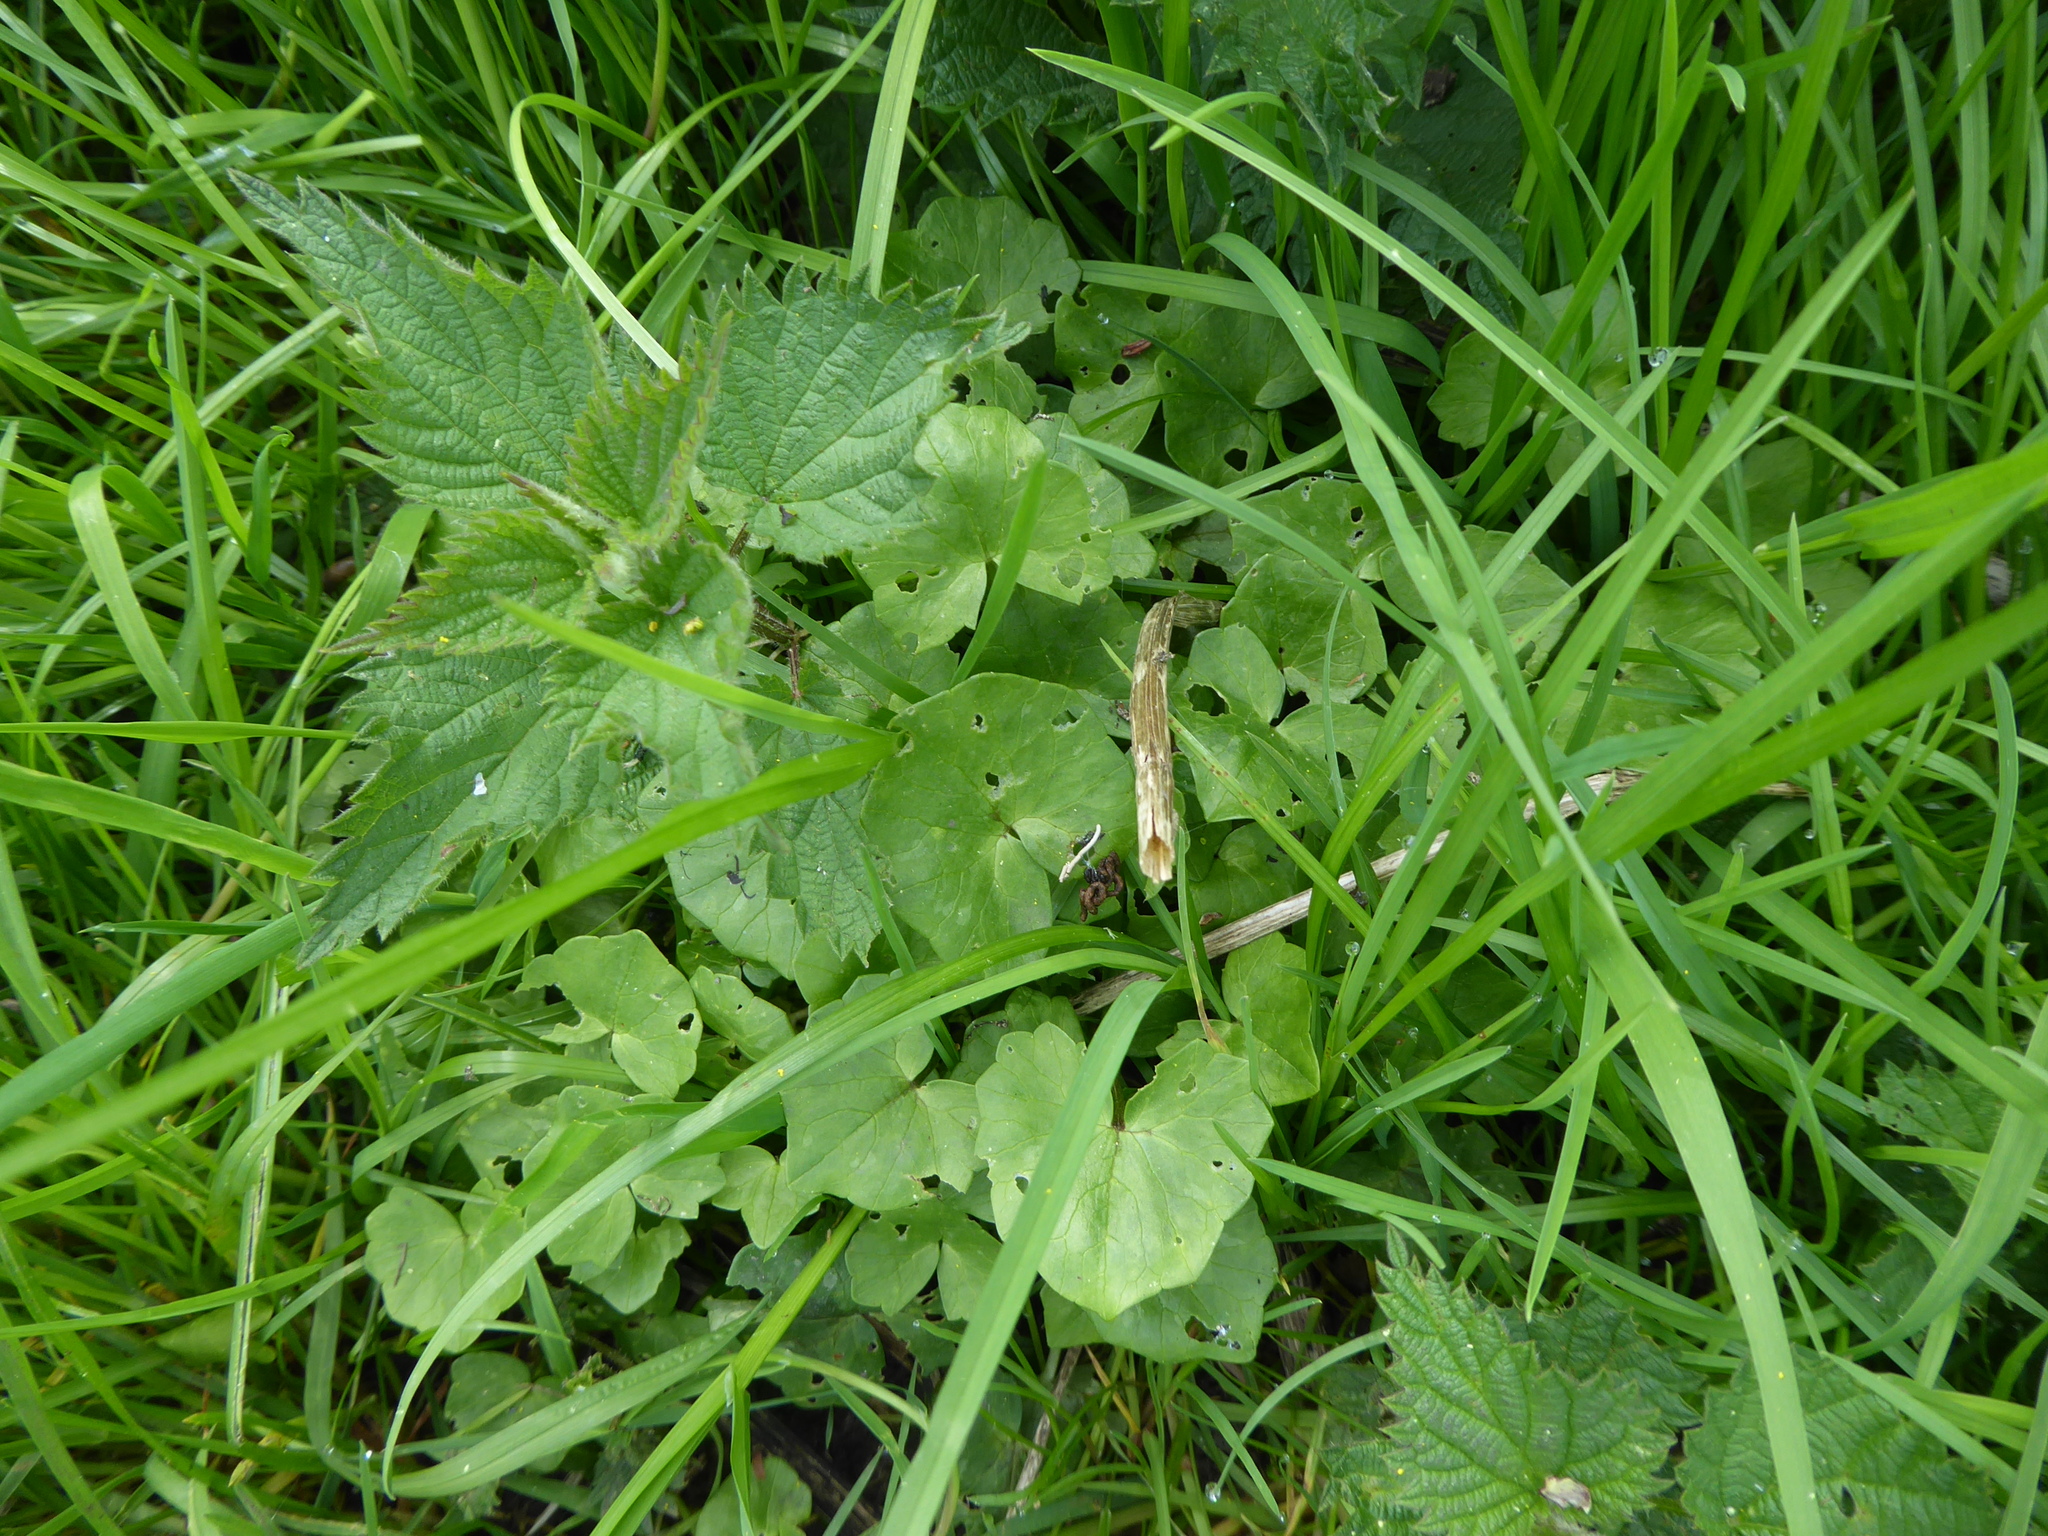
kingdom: Plantae
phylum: Tracheophyta
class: Magnoliopsida
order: Ranunculales
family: Ranunculaceae
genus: Ficaria
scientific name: Ficaria verna
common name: Lesser celandine
